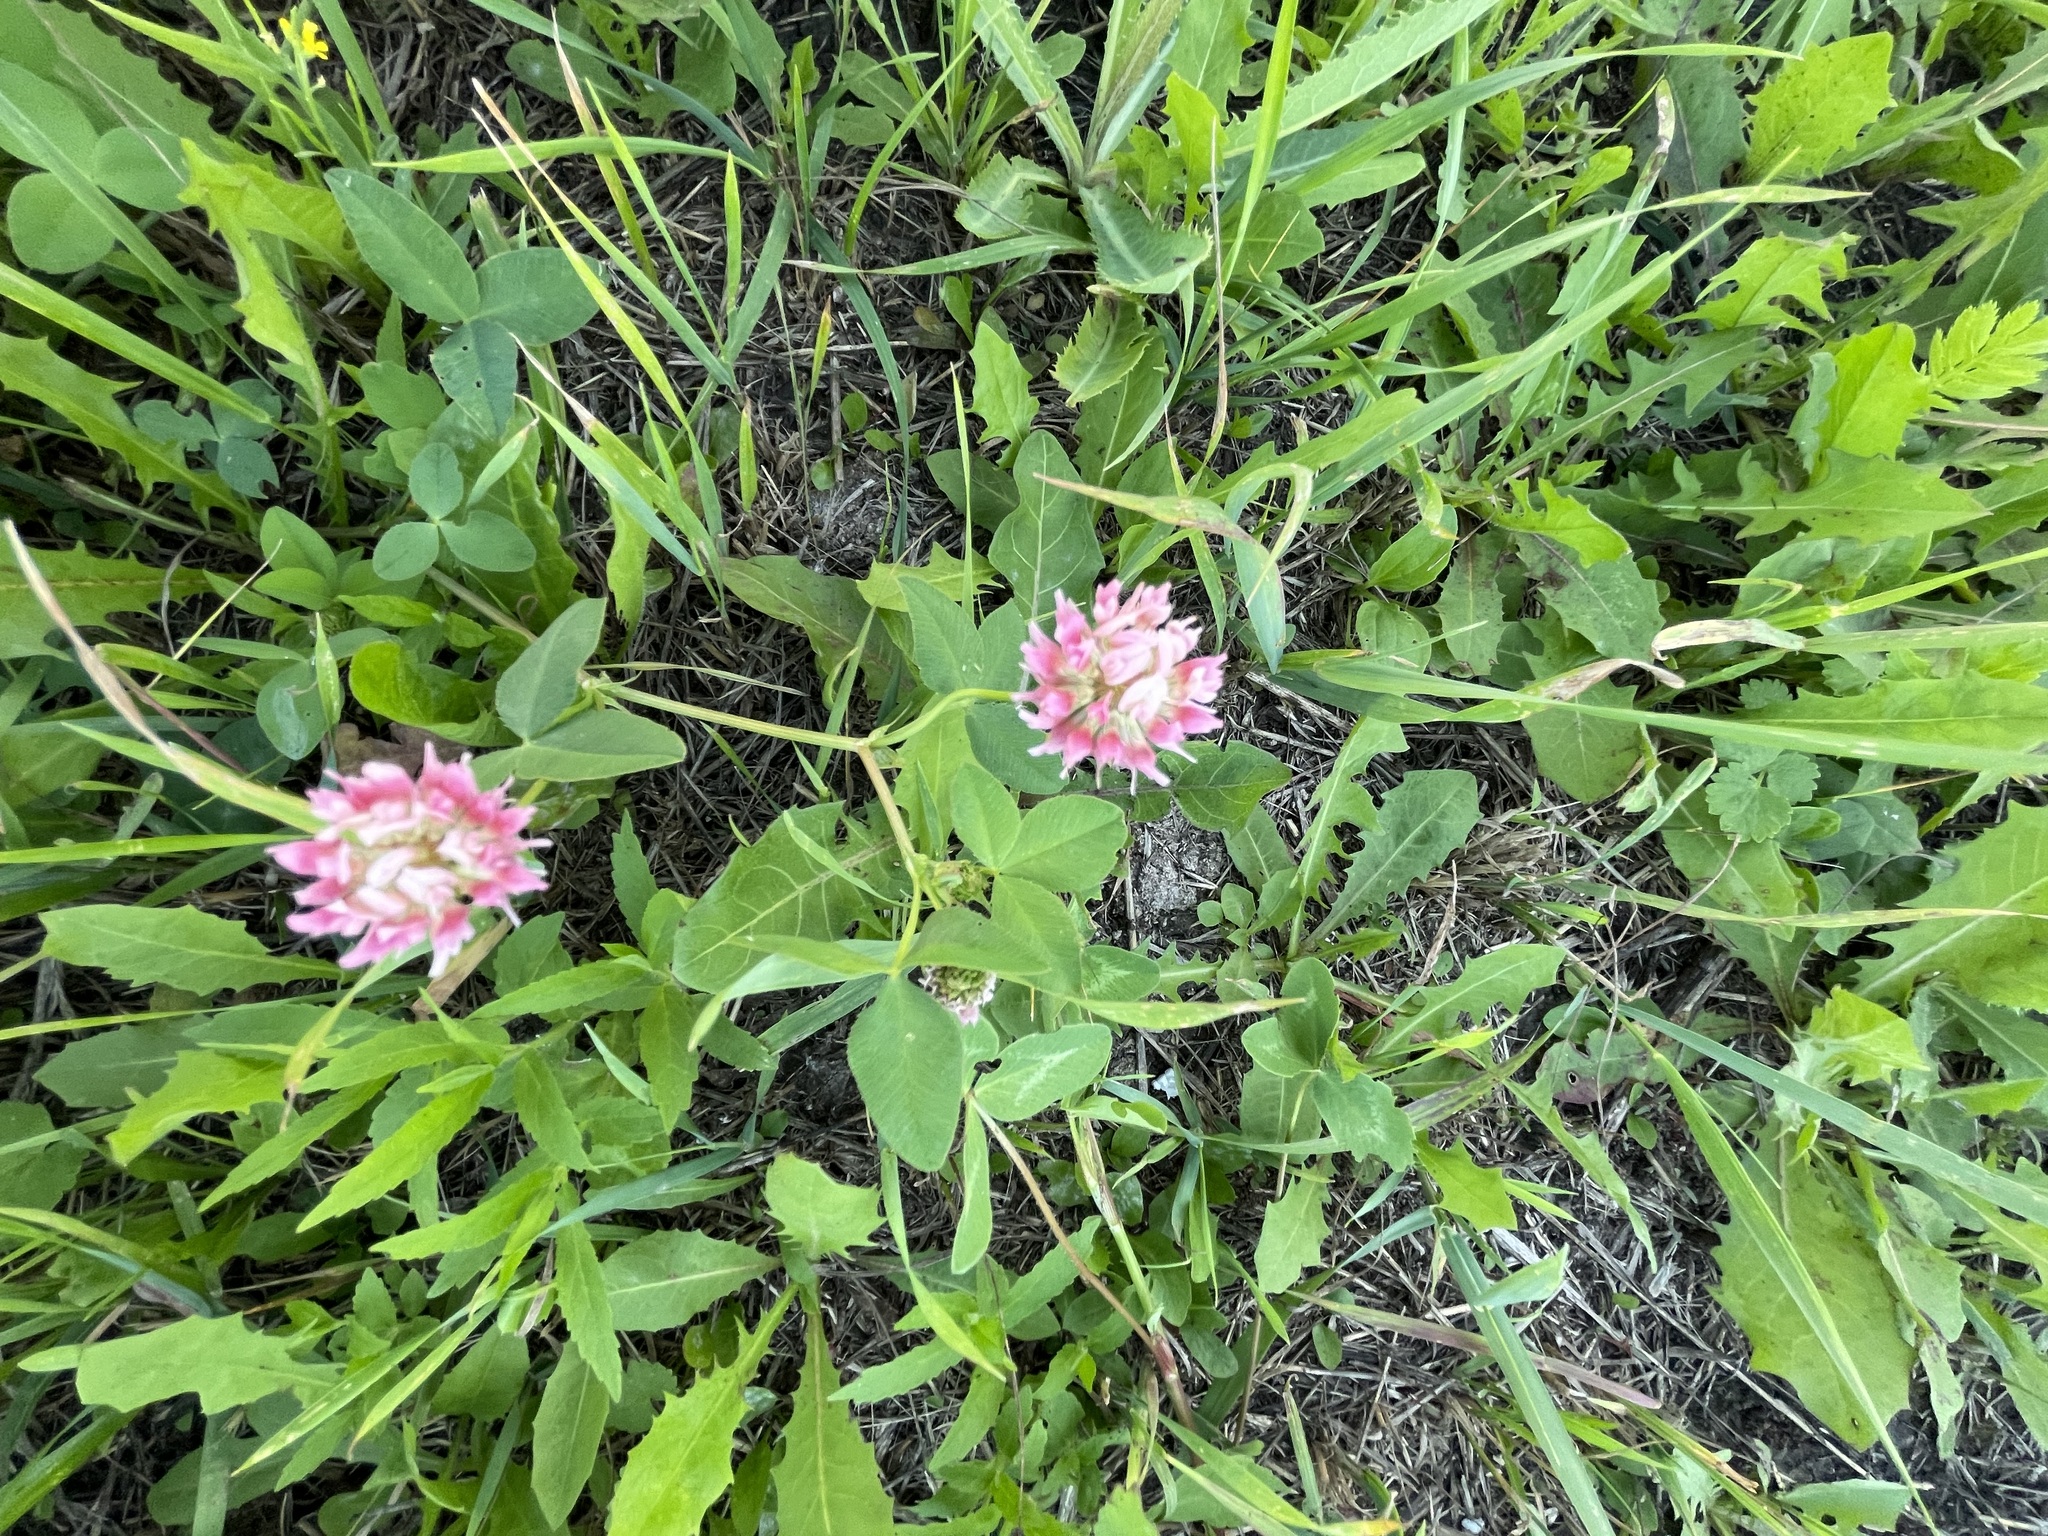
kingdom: Plantae
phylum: Tracheophyta
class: Magnoliopsida
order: Fabales
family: Fabaceae
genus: Trifolium
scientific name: Trifolium hybridum
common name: Alsike clover
